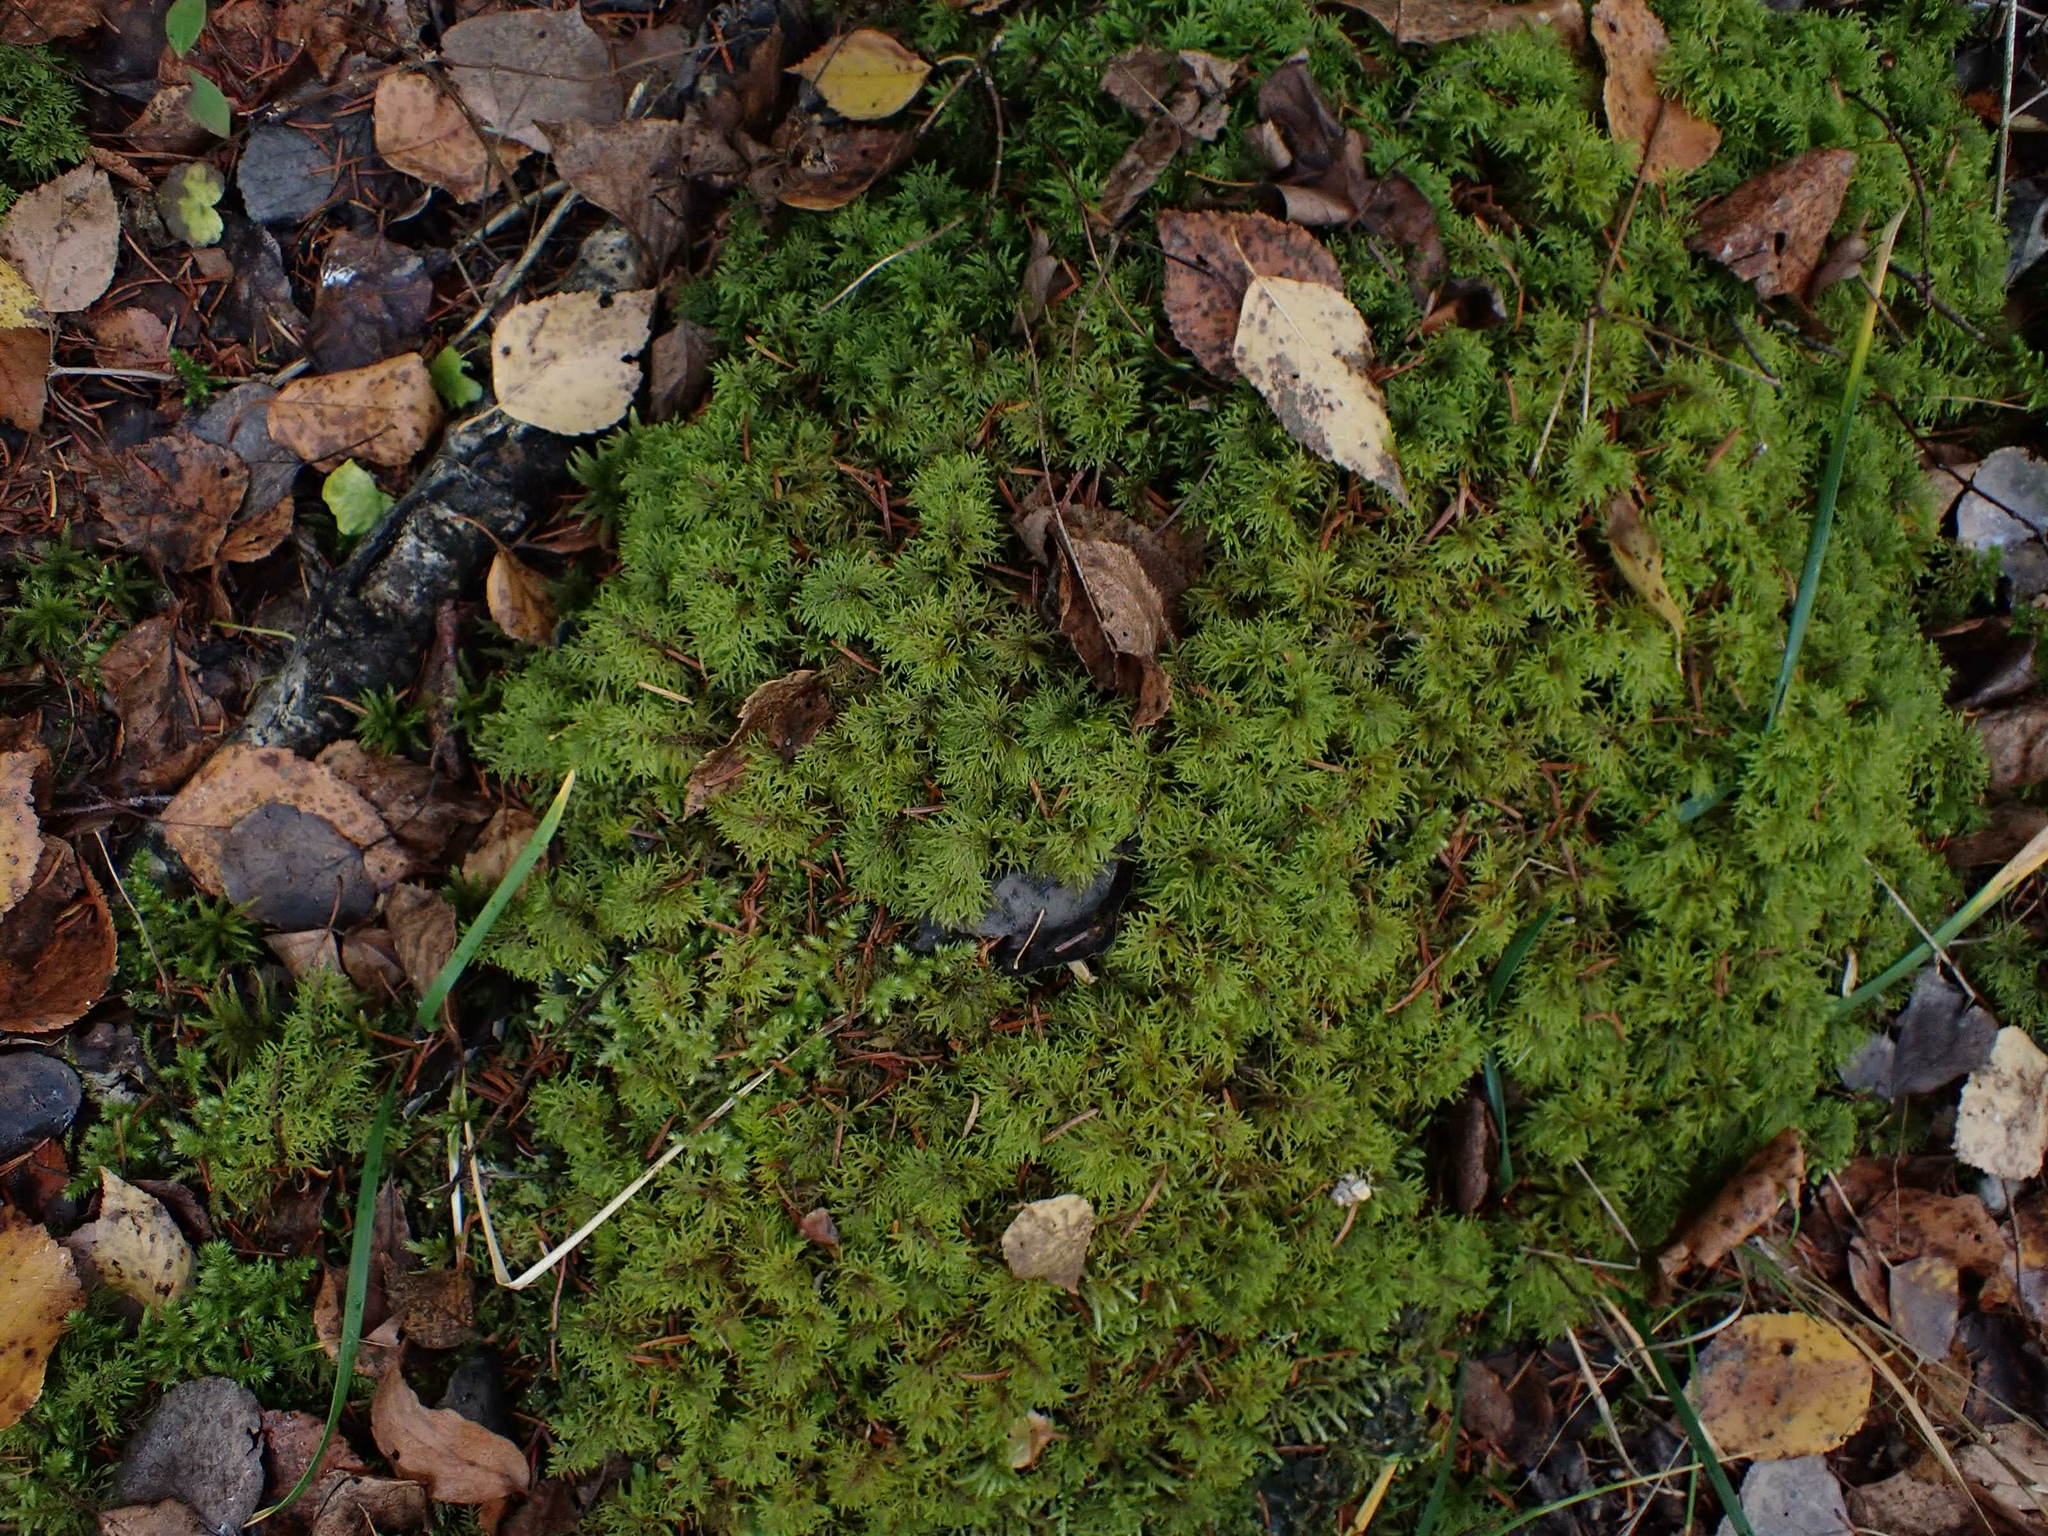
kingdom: Plantae
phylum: Bryophyta
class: Bryopsida
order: Hypnales
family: Hylocomiaceae
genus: Hylocomium
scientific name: Hylocomium splendens
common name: Stairstep moss
